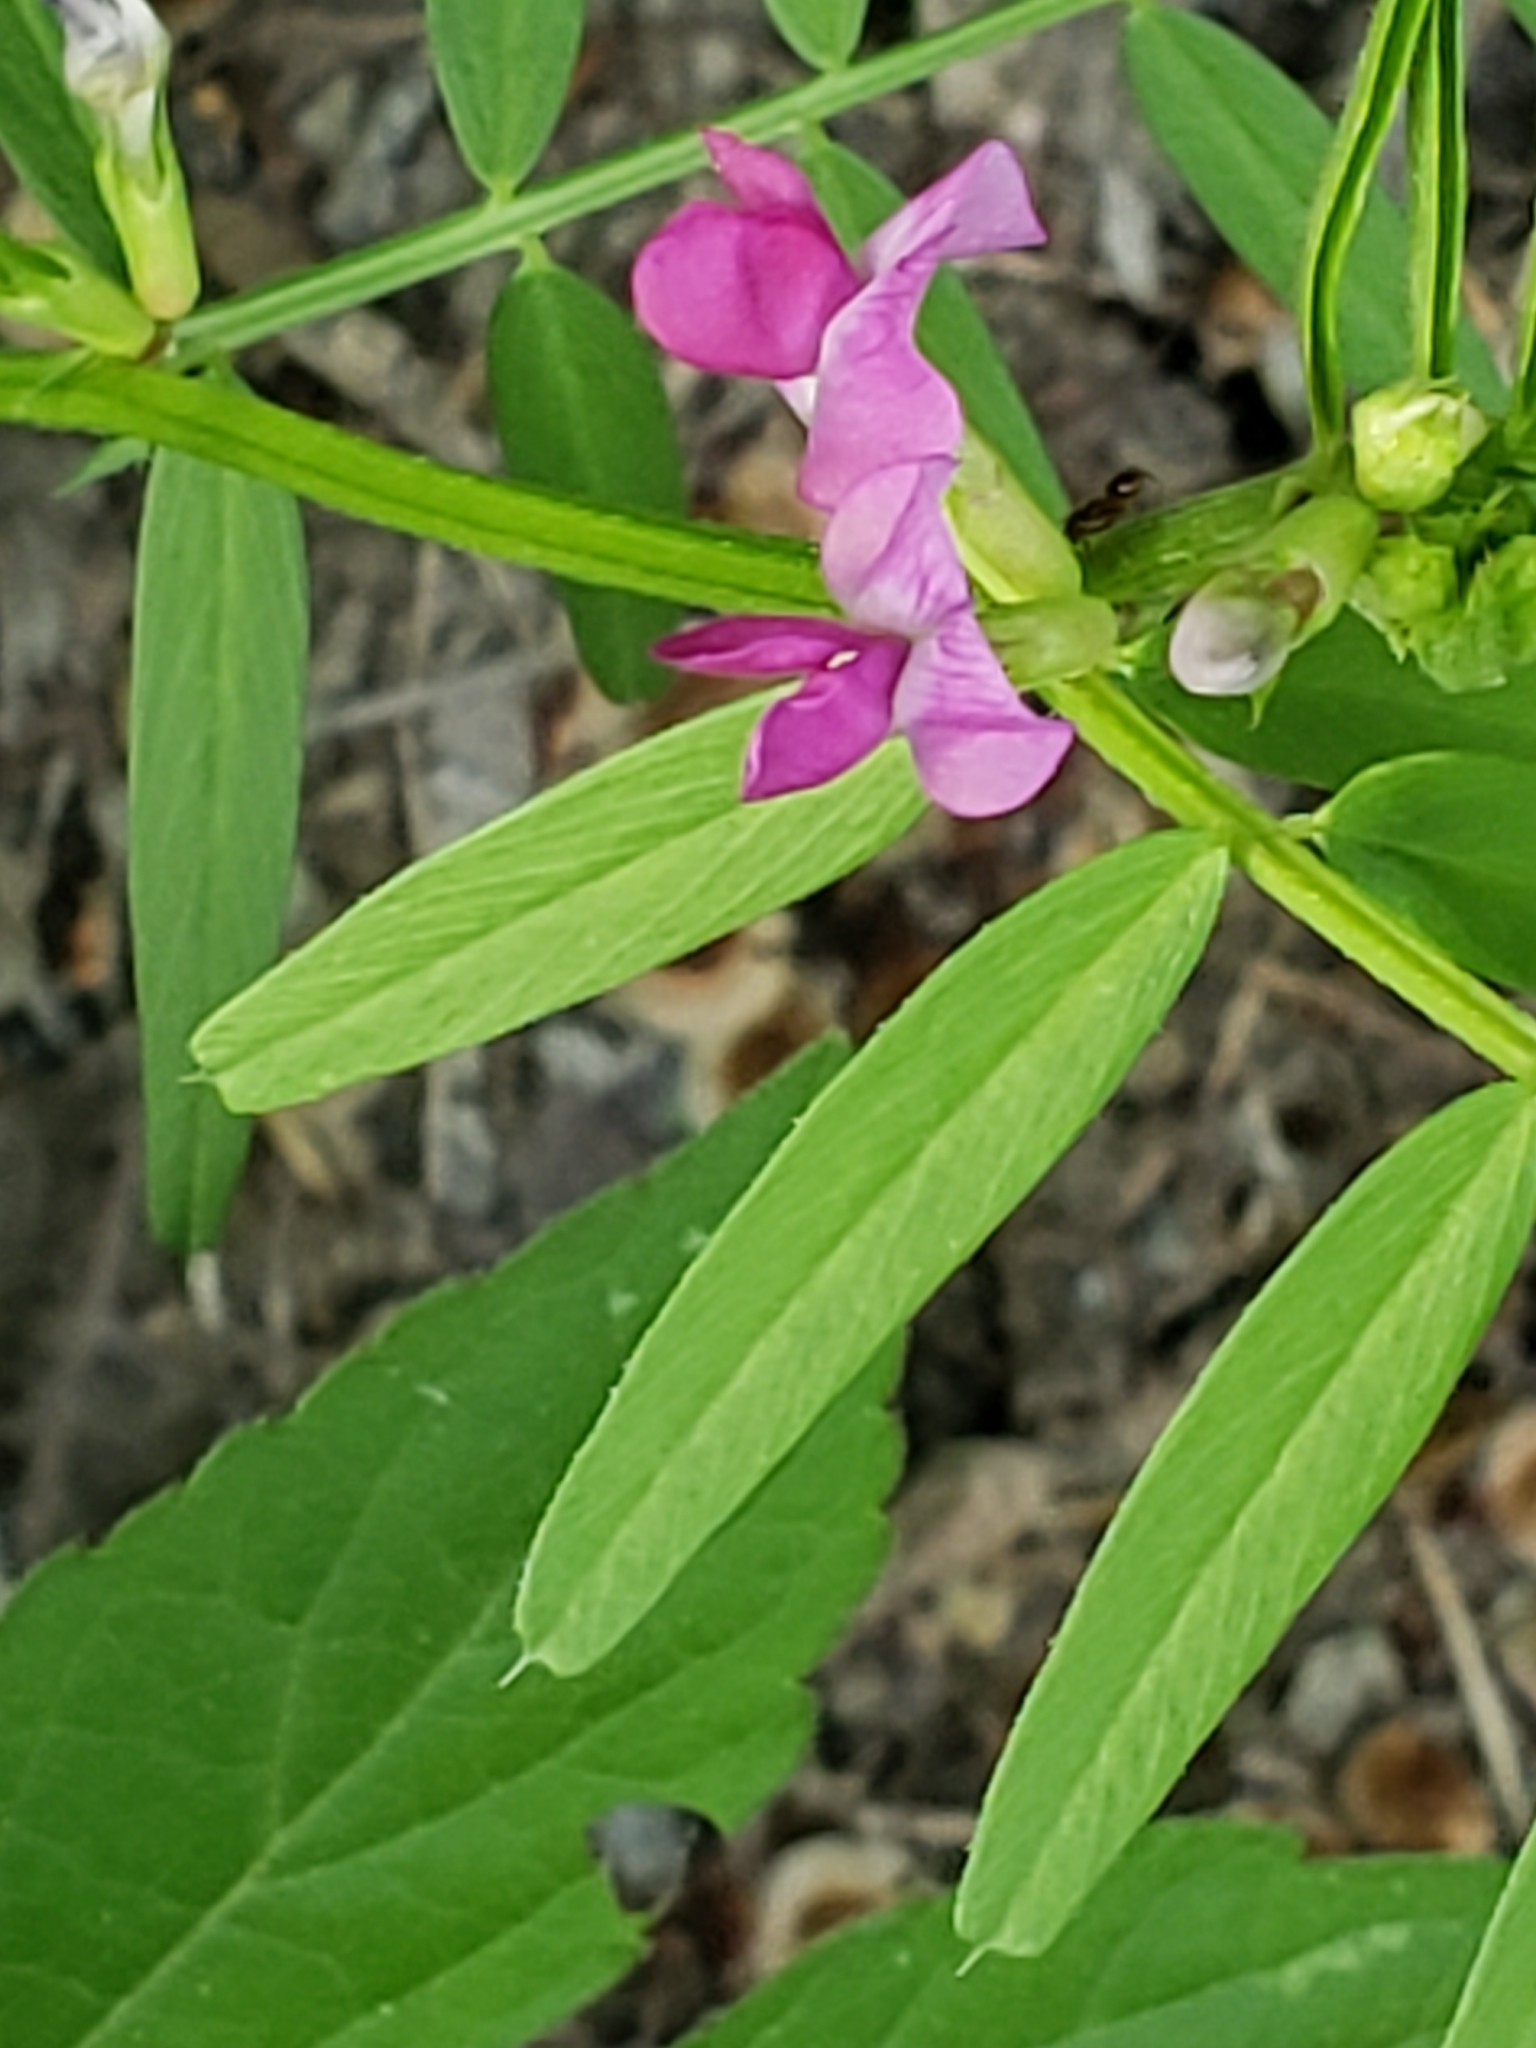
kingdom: Plantae
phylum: Tracheophyta
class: Magnoliopsida
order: Fabales
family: Fabaceae
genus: Vicia
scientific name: Vicia sativa
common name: Garden vetch
